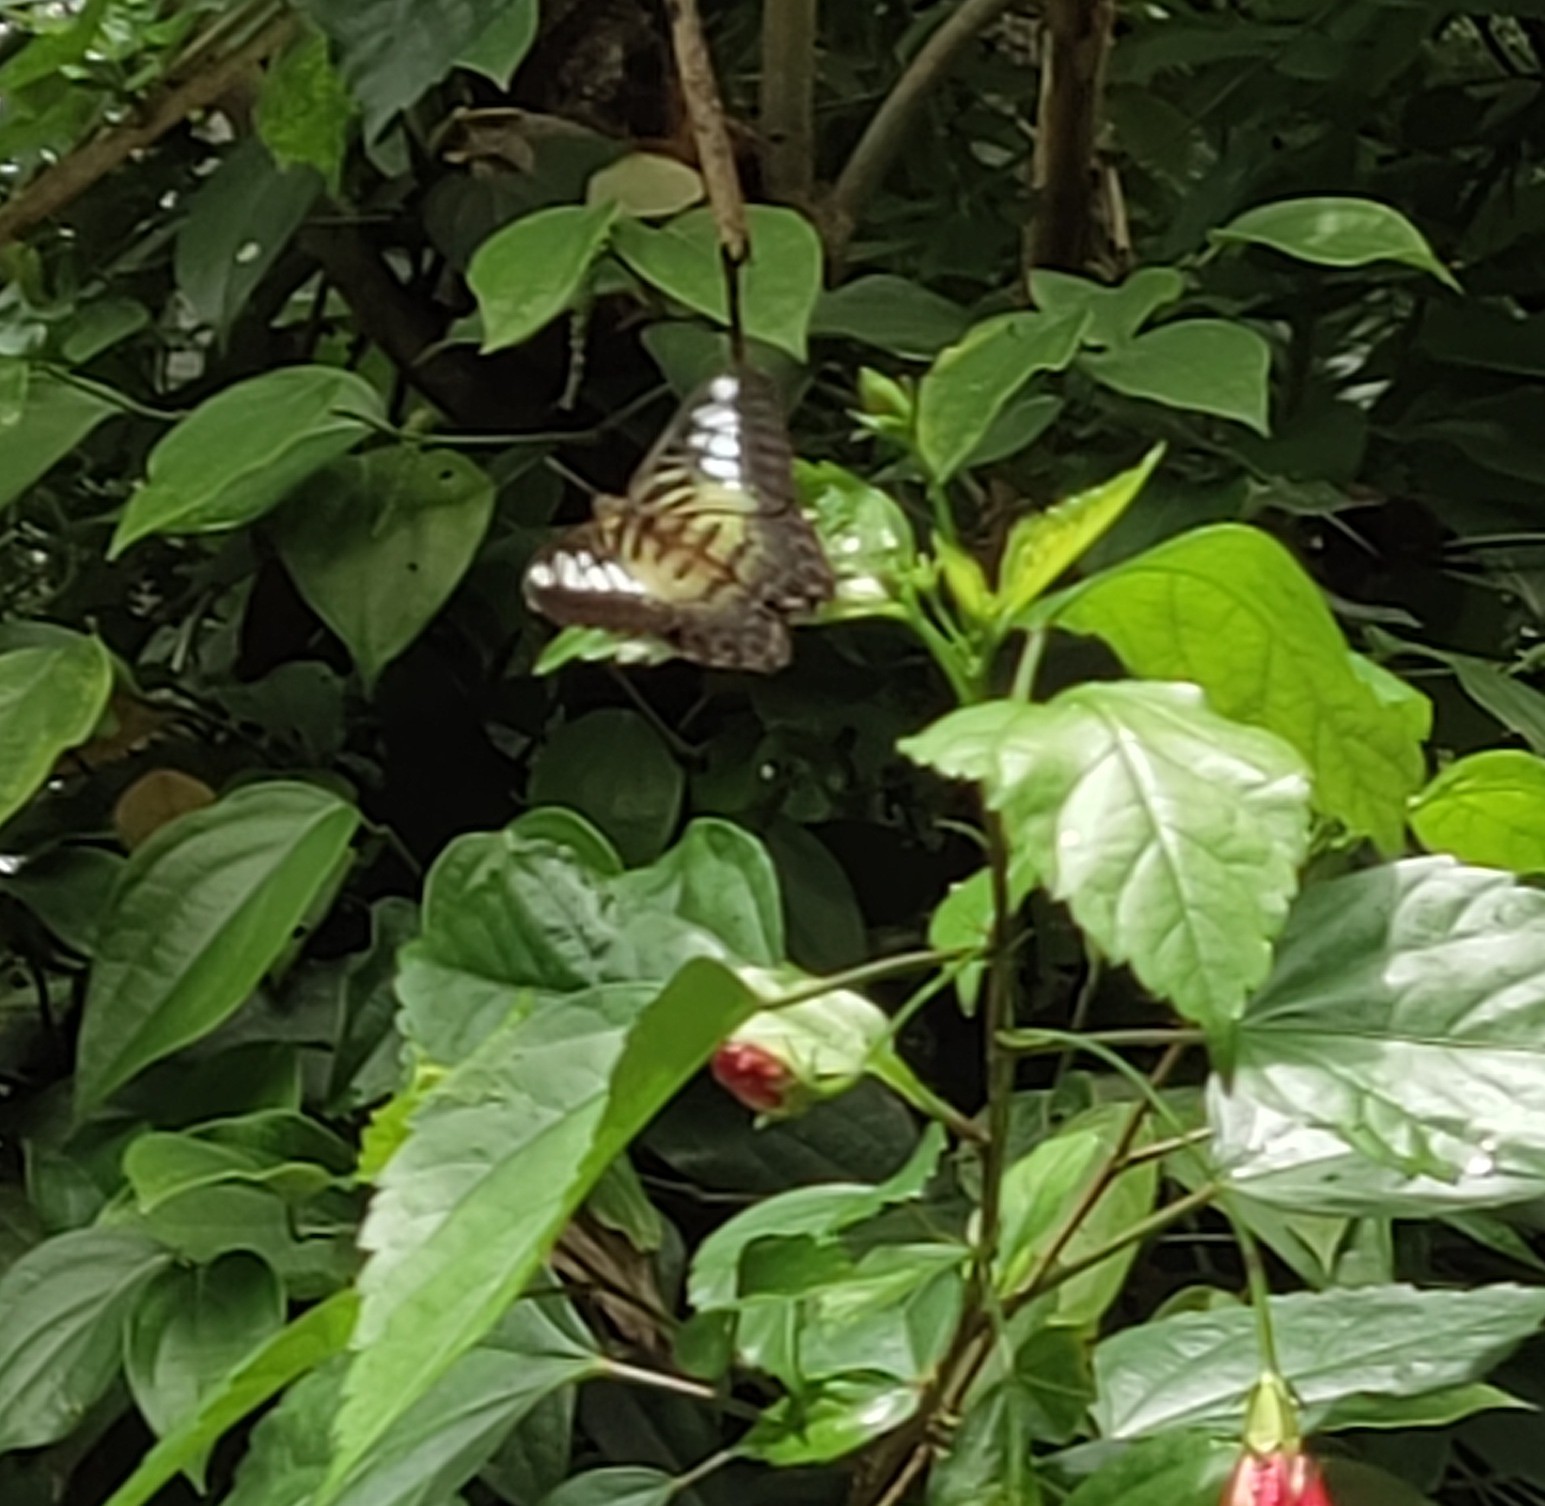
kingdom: Animalia
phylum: Arthropoda
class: Insecta
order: Lepidoptera
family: Nymphalidae
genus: Kallima
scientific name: Kallima sylvia
